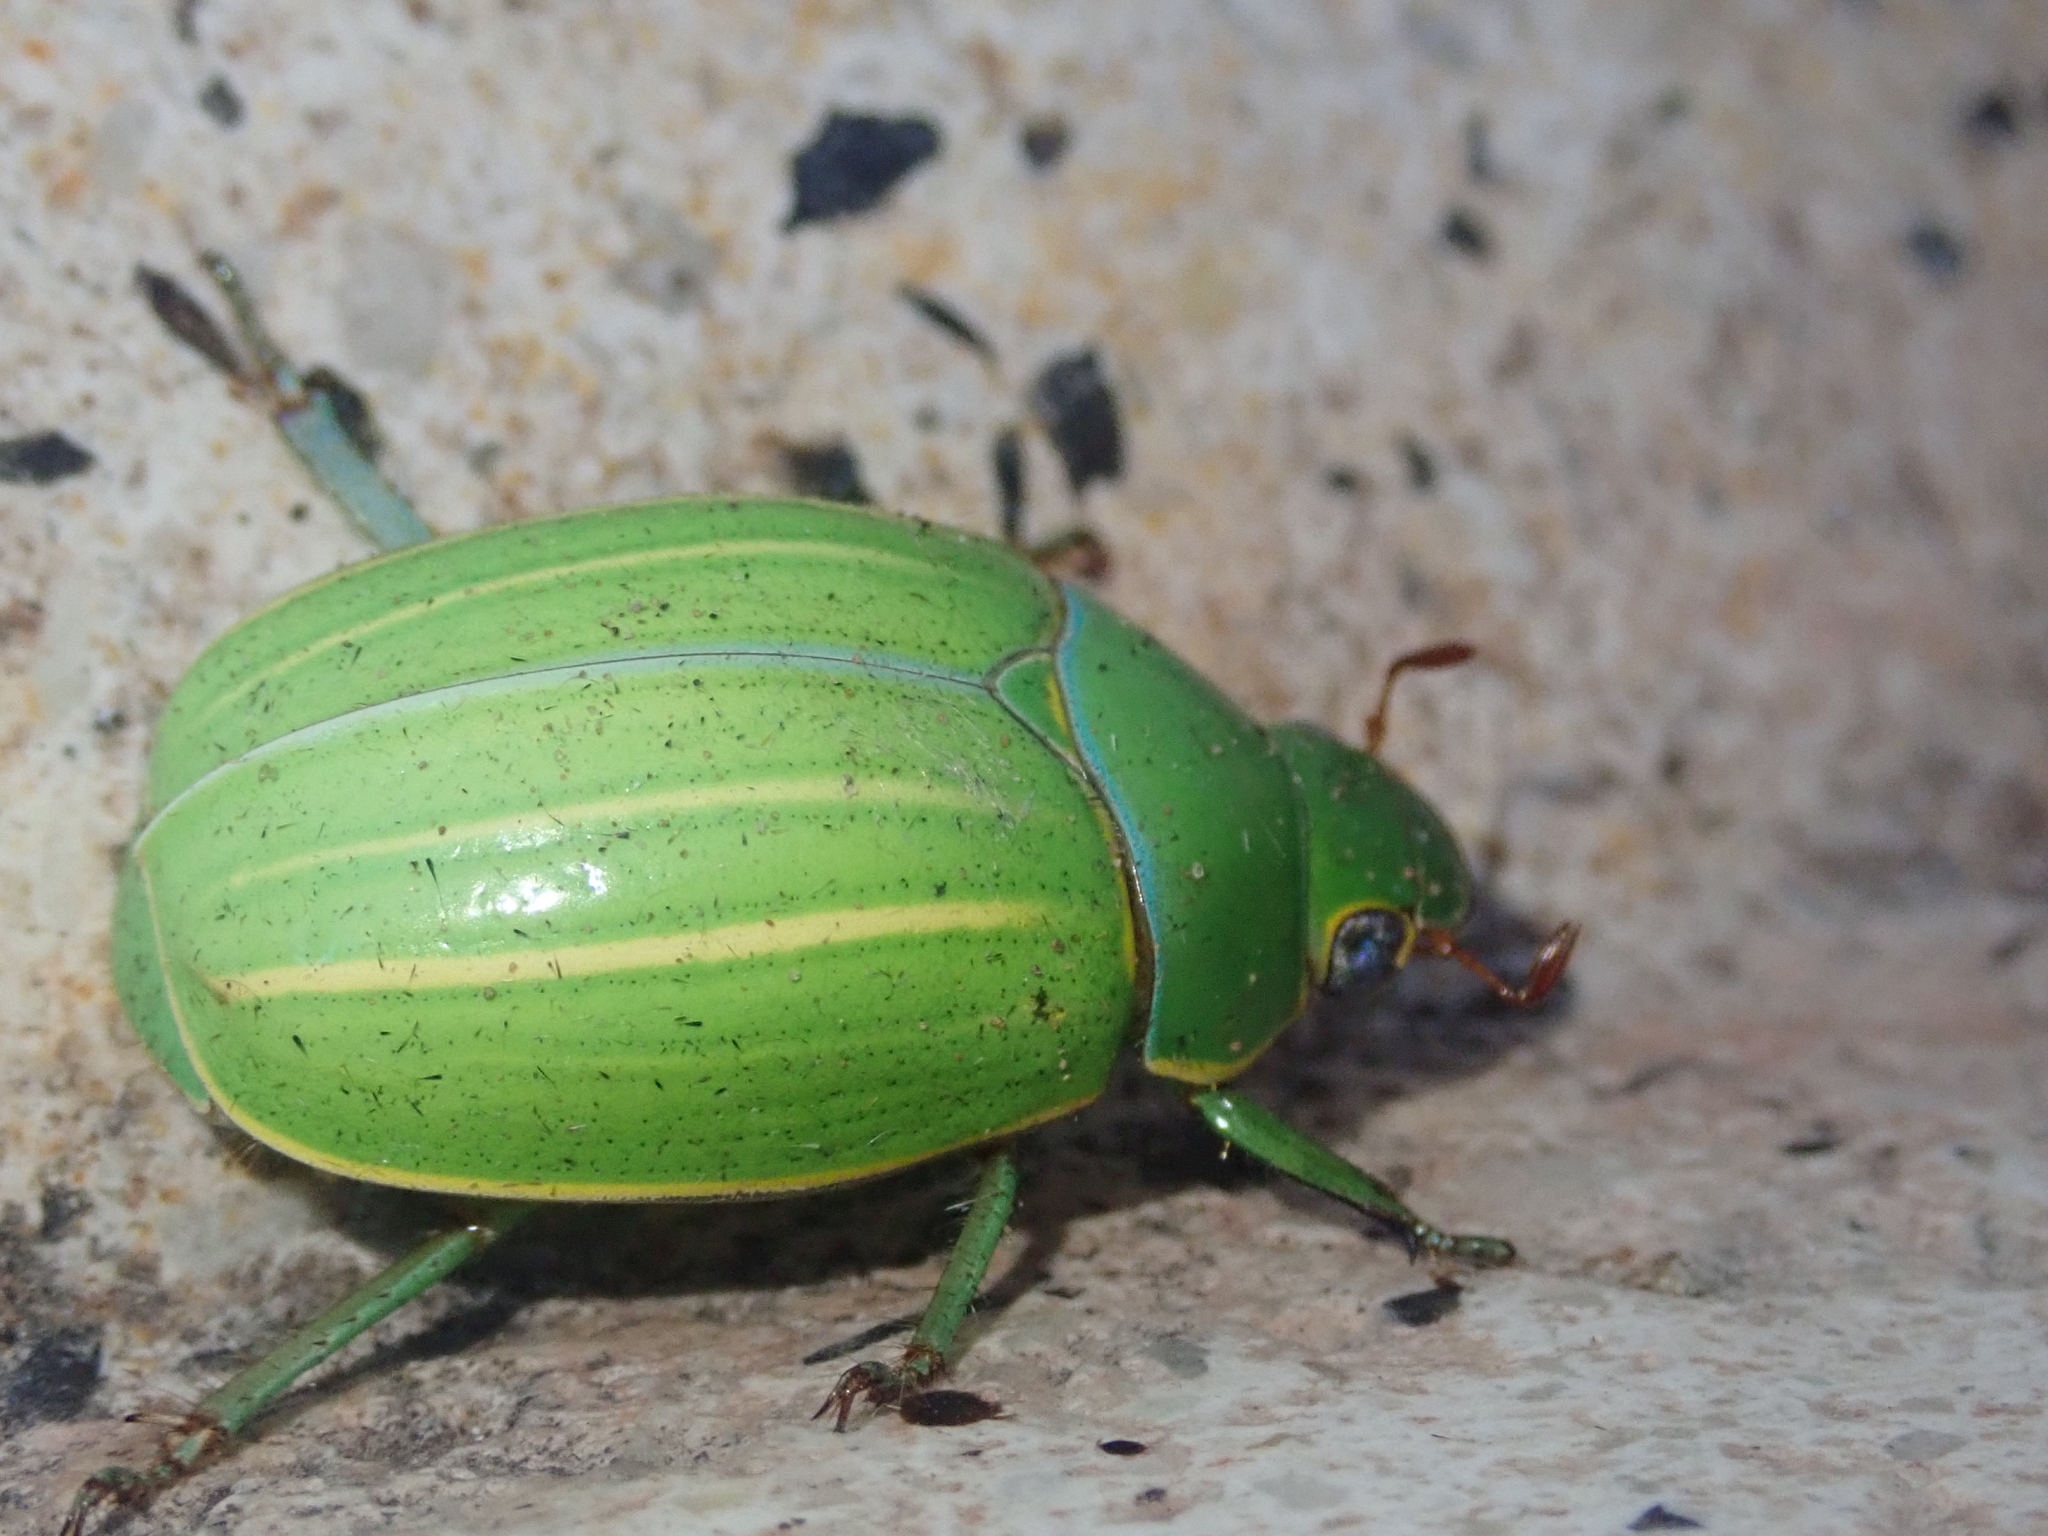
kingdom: Animalia
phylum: Arthropoda
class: Insecta
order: Coleoptera
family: Scarabaeidae
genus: Platycoelia
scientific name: Platycoelia inflata
